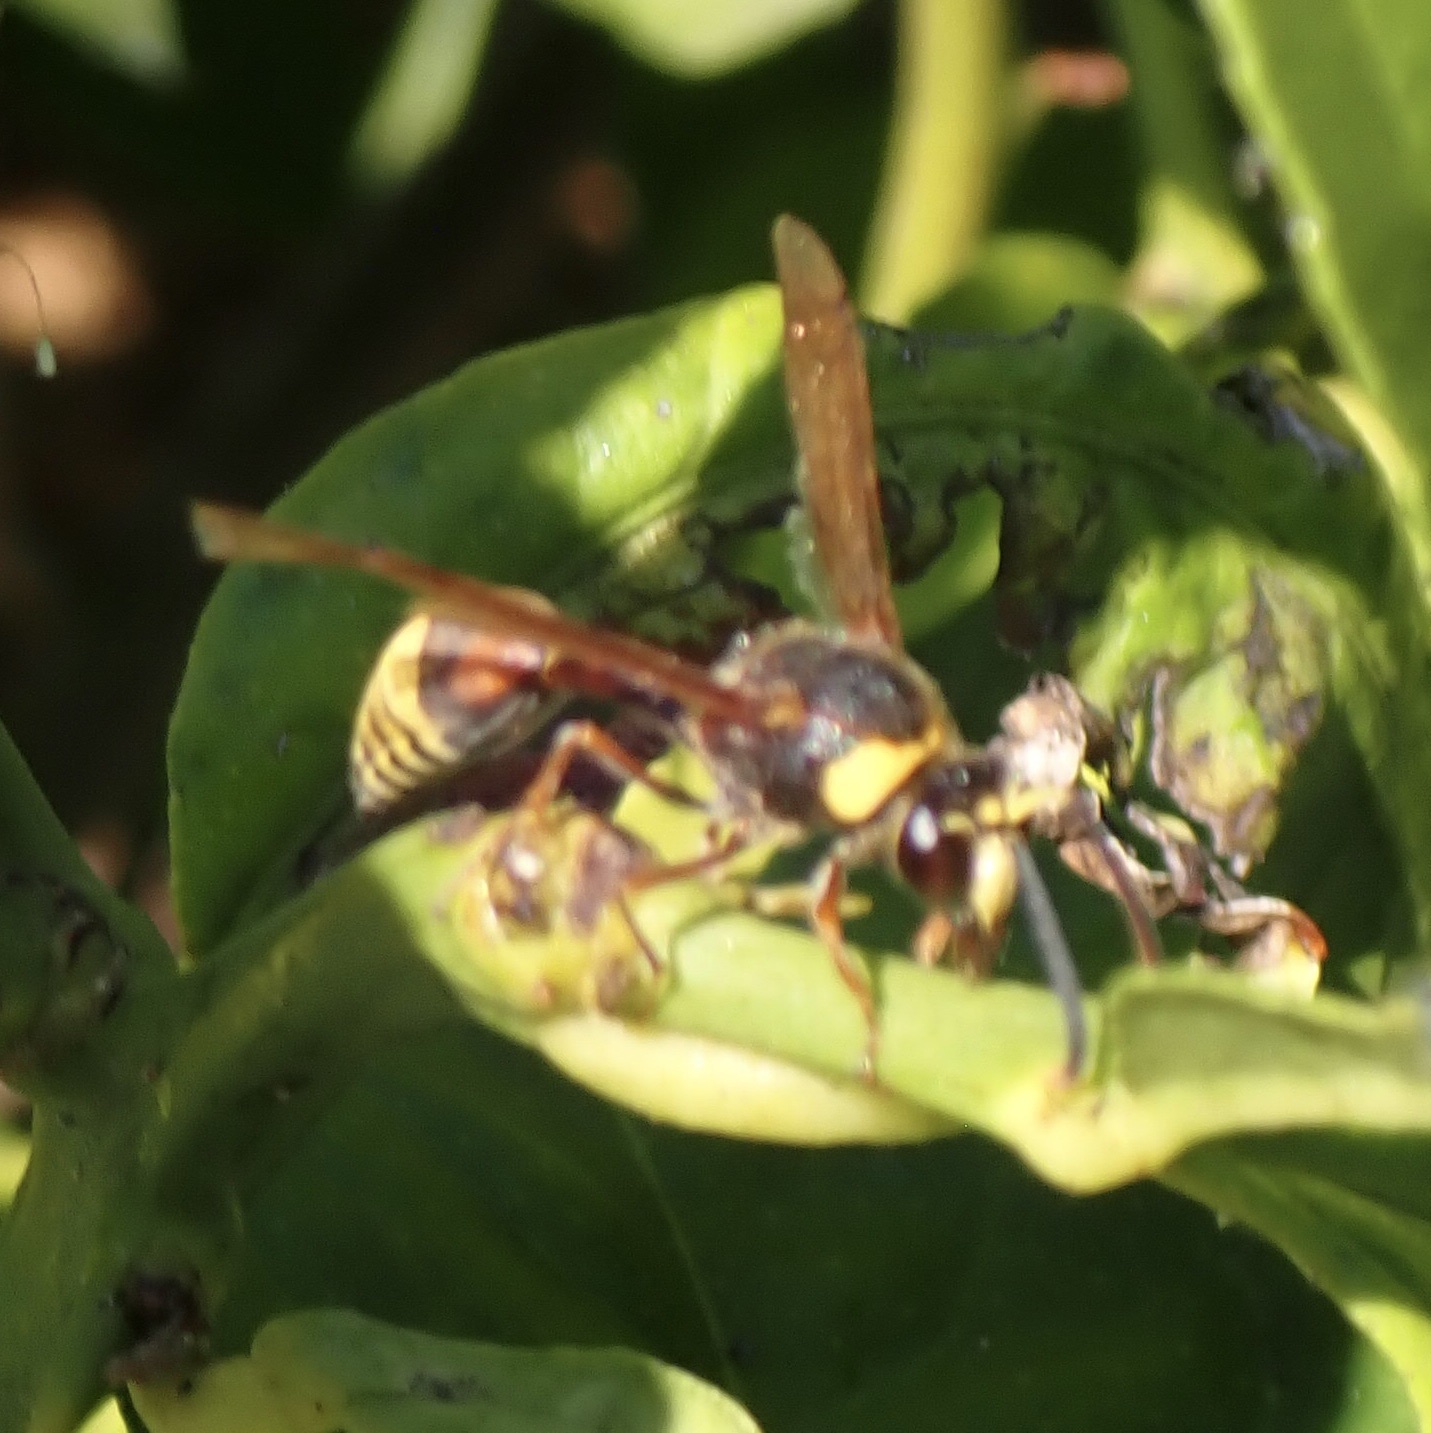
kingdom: Animalia
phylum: Arthropoda
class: Insecta
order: Hymenoptera
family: Eumenidae
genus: Delta
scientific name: Delta unguiculatum
